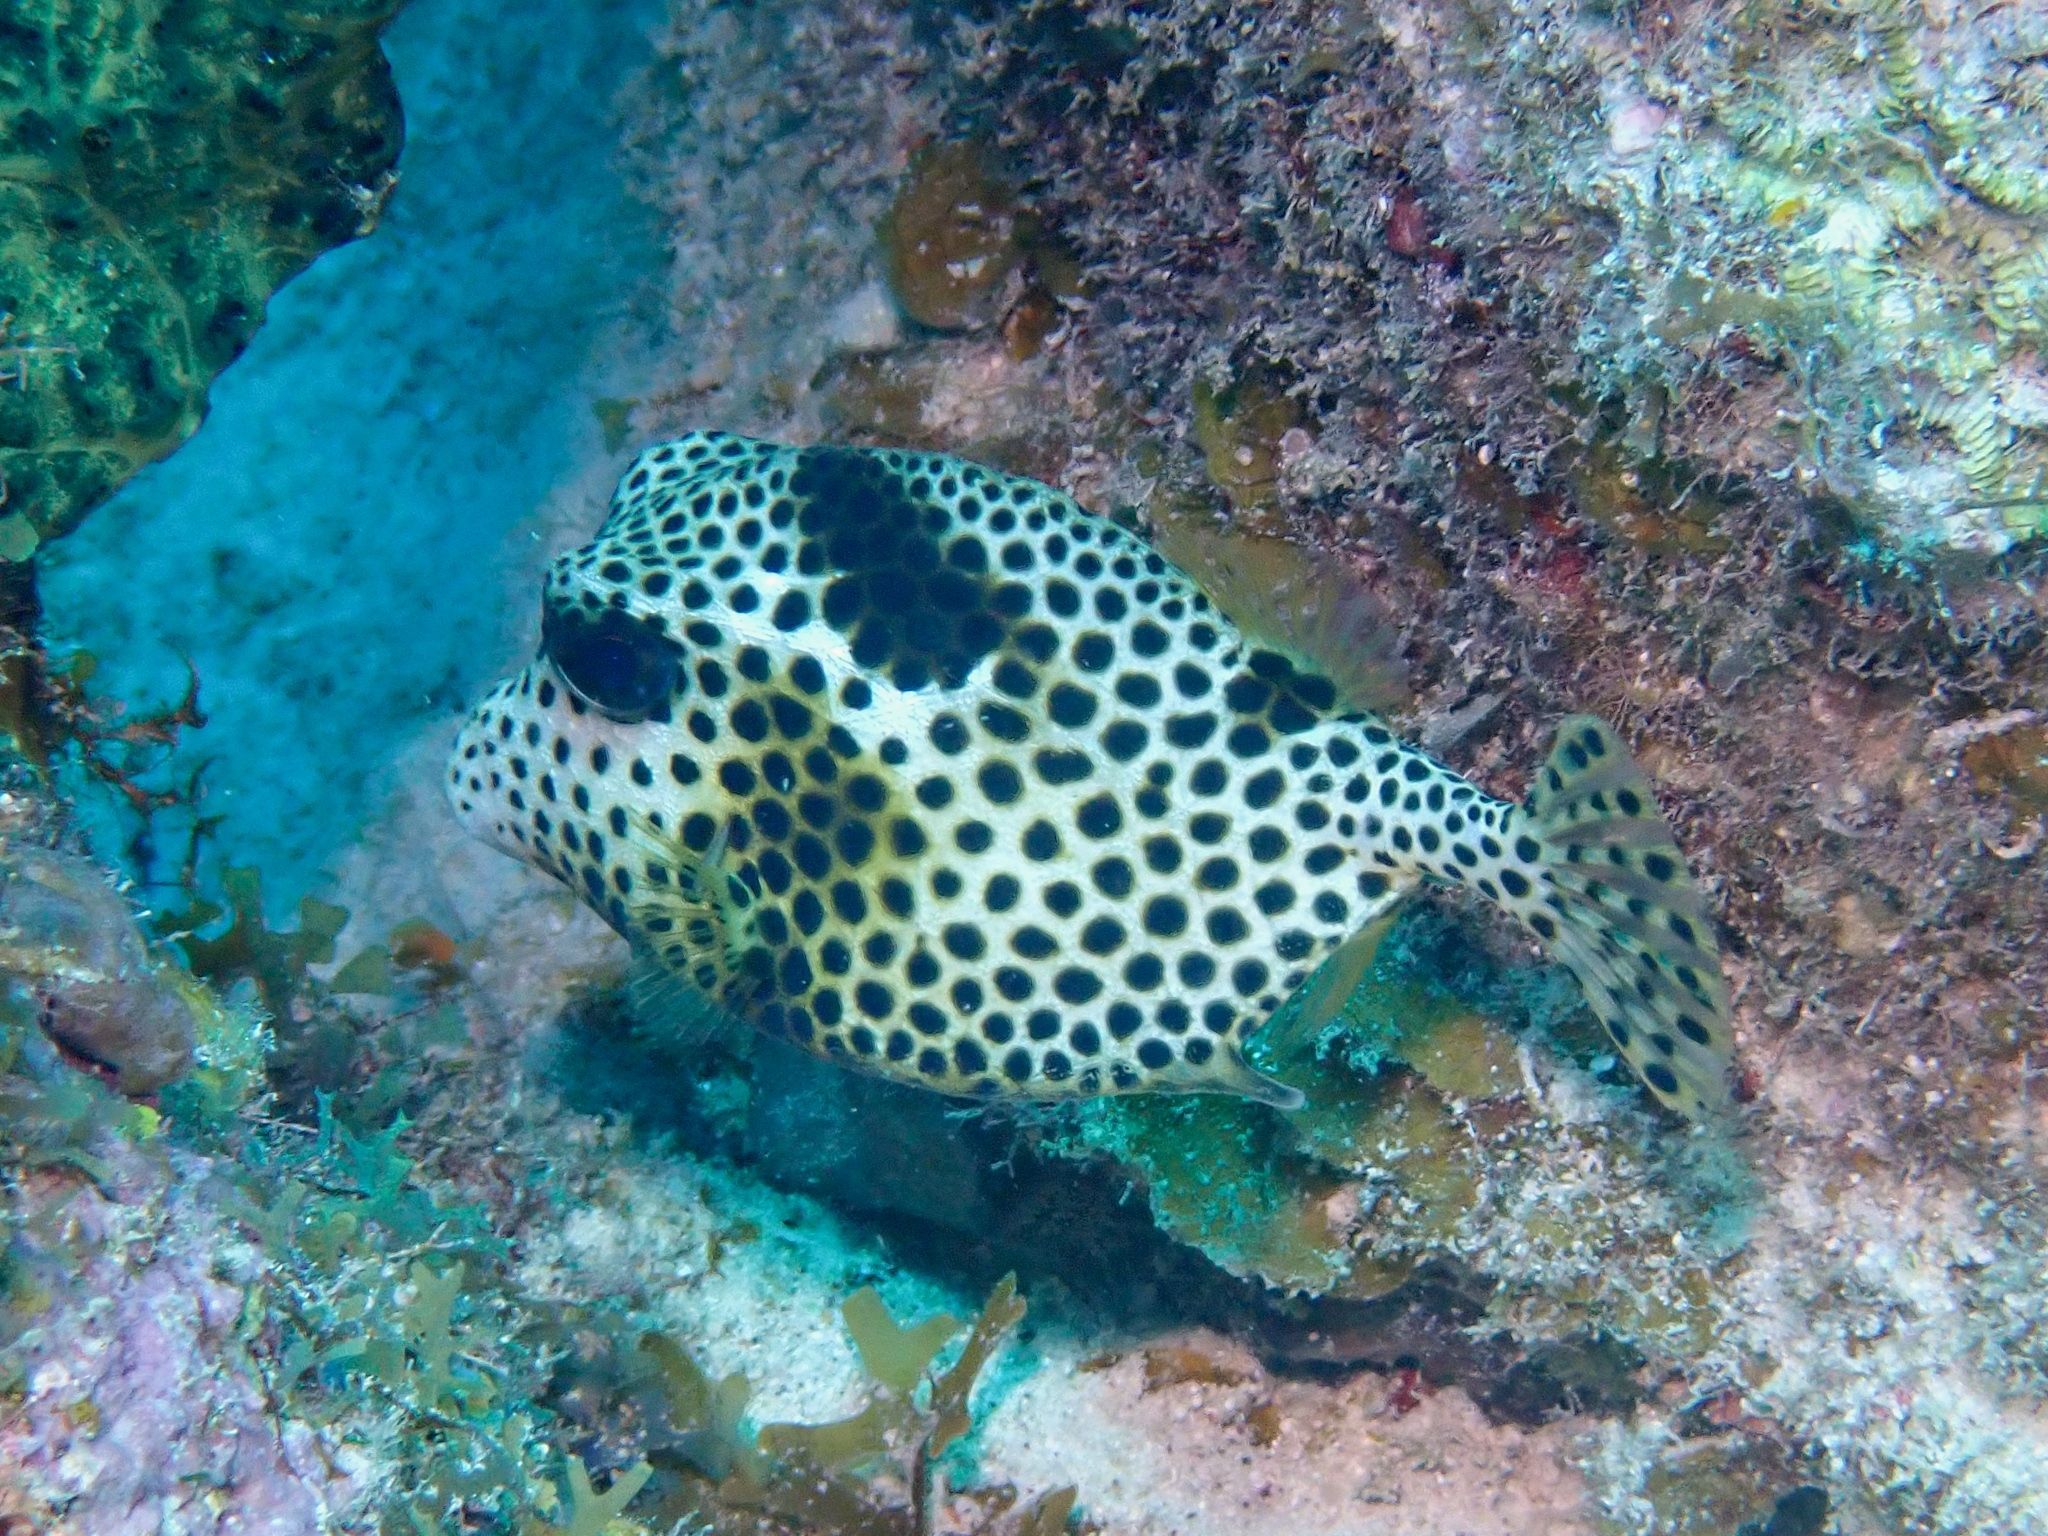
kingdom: Animalia
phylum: Chordata
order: Tetraodontiformes
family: Ostraciidae
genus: Lactophrys
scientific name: Lactophrys bicaudalis
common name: Spotted trunkfish
